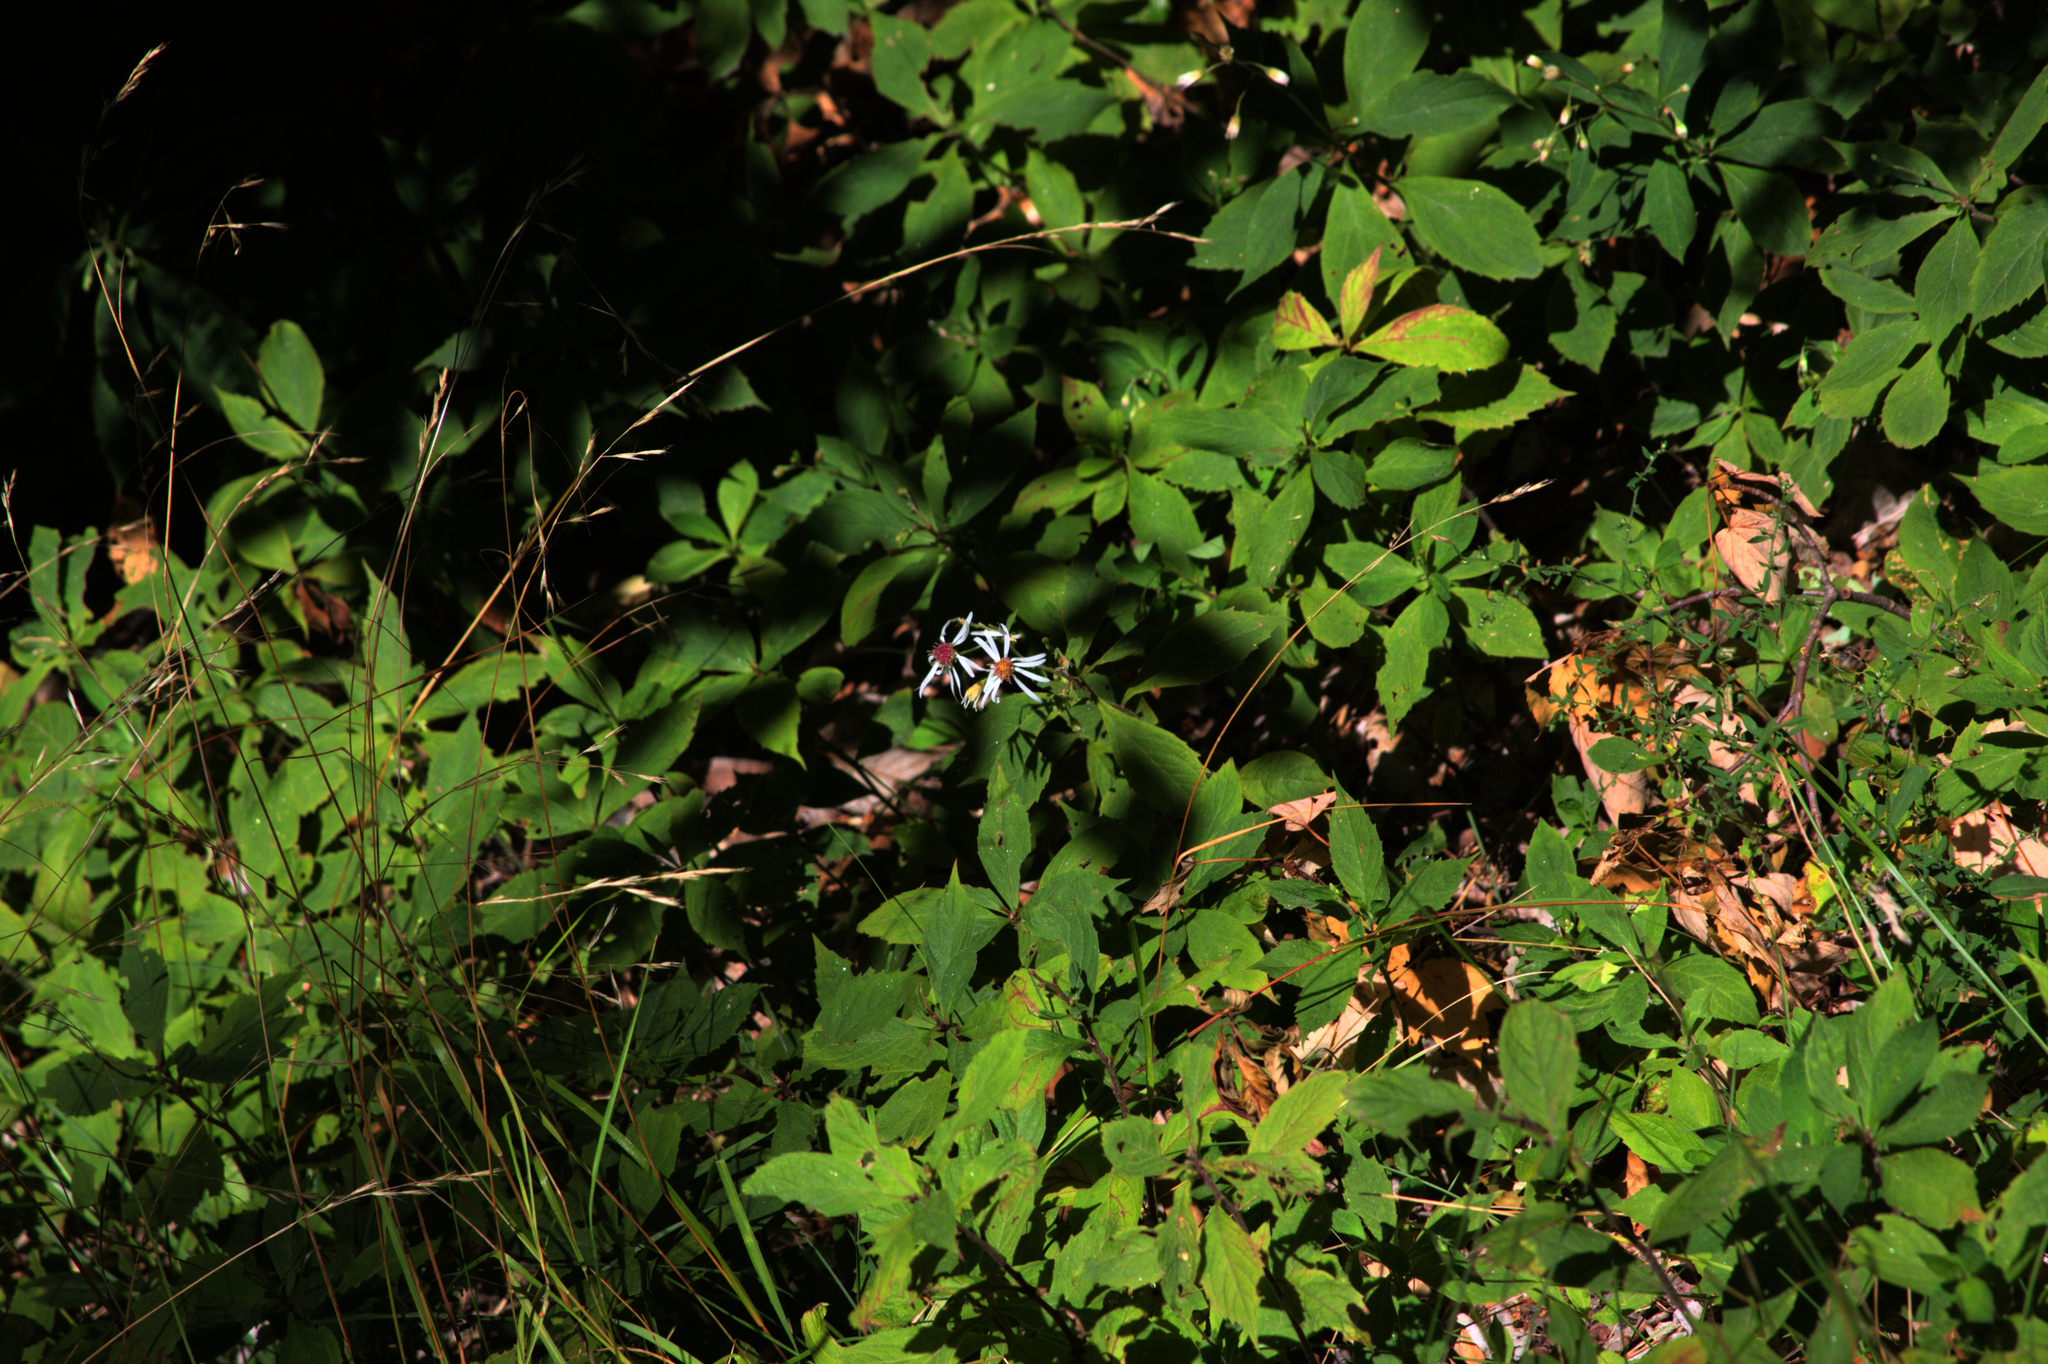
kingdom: Plantae
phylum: Tracheophyta
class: Magnoliopsida
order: Asterales
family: Asteraceae
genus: Oclemena
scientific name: Oclemena acuminata
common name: Mountain aster
